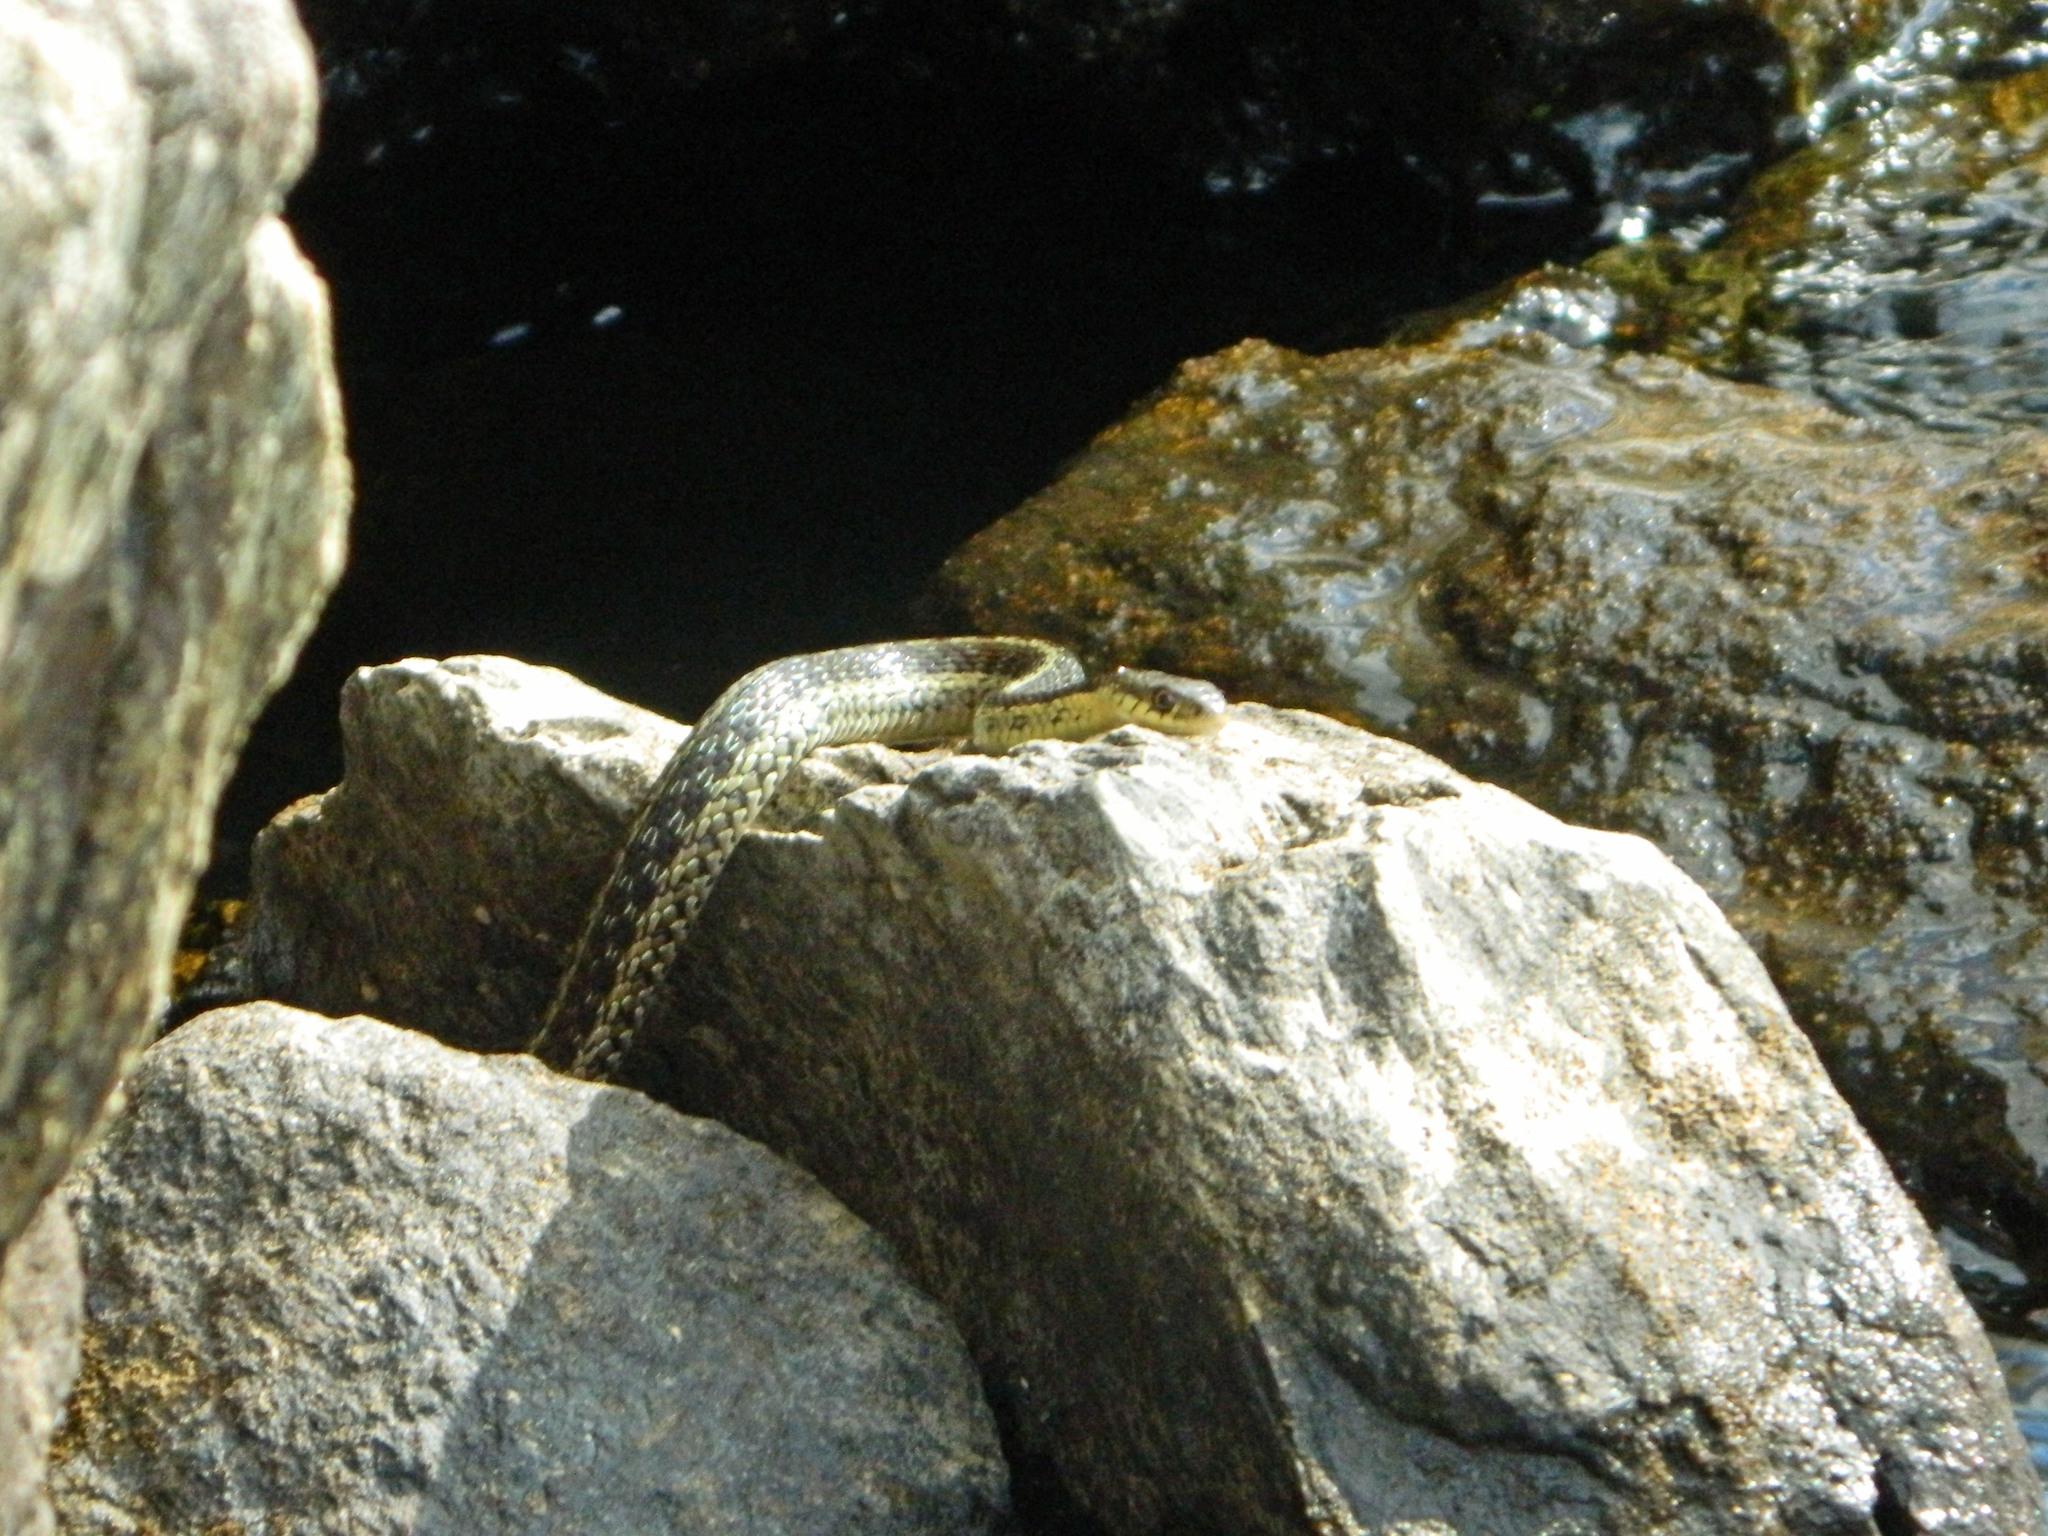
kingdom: Animalia
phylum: Chordata
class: Squamata
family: Colubridae
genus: Thamnophis
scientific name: Thamnophis sirtalis
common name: Common garter snake
